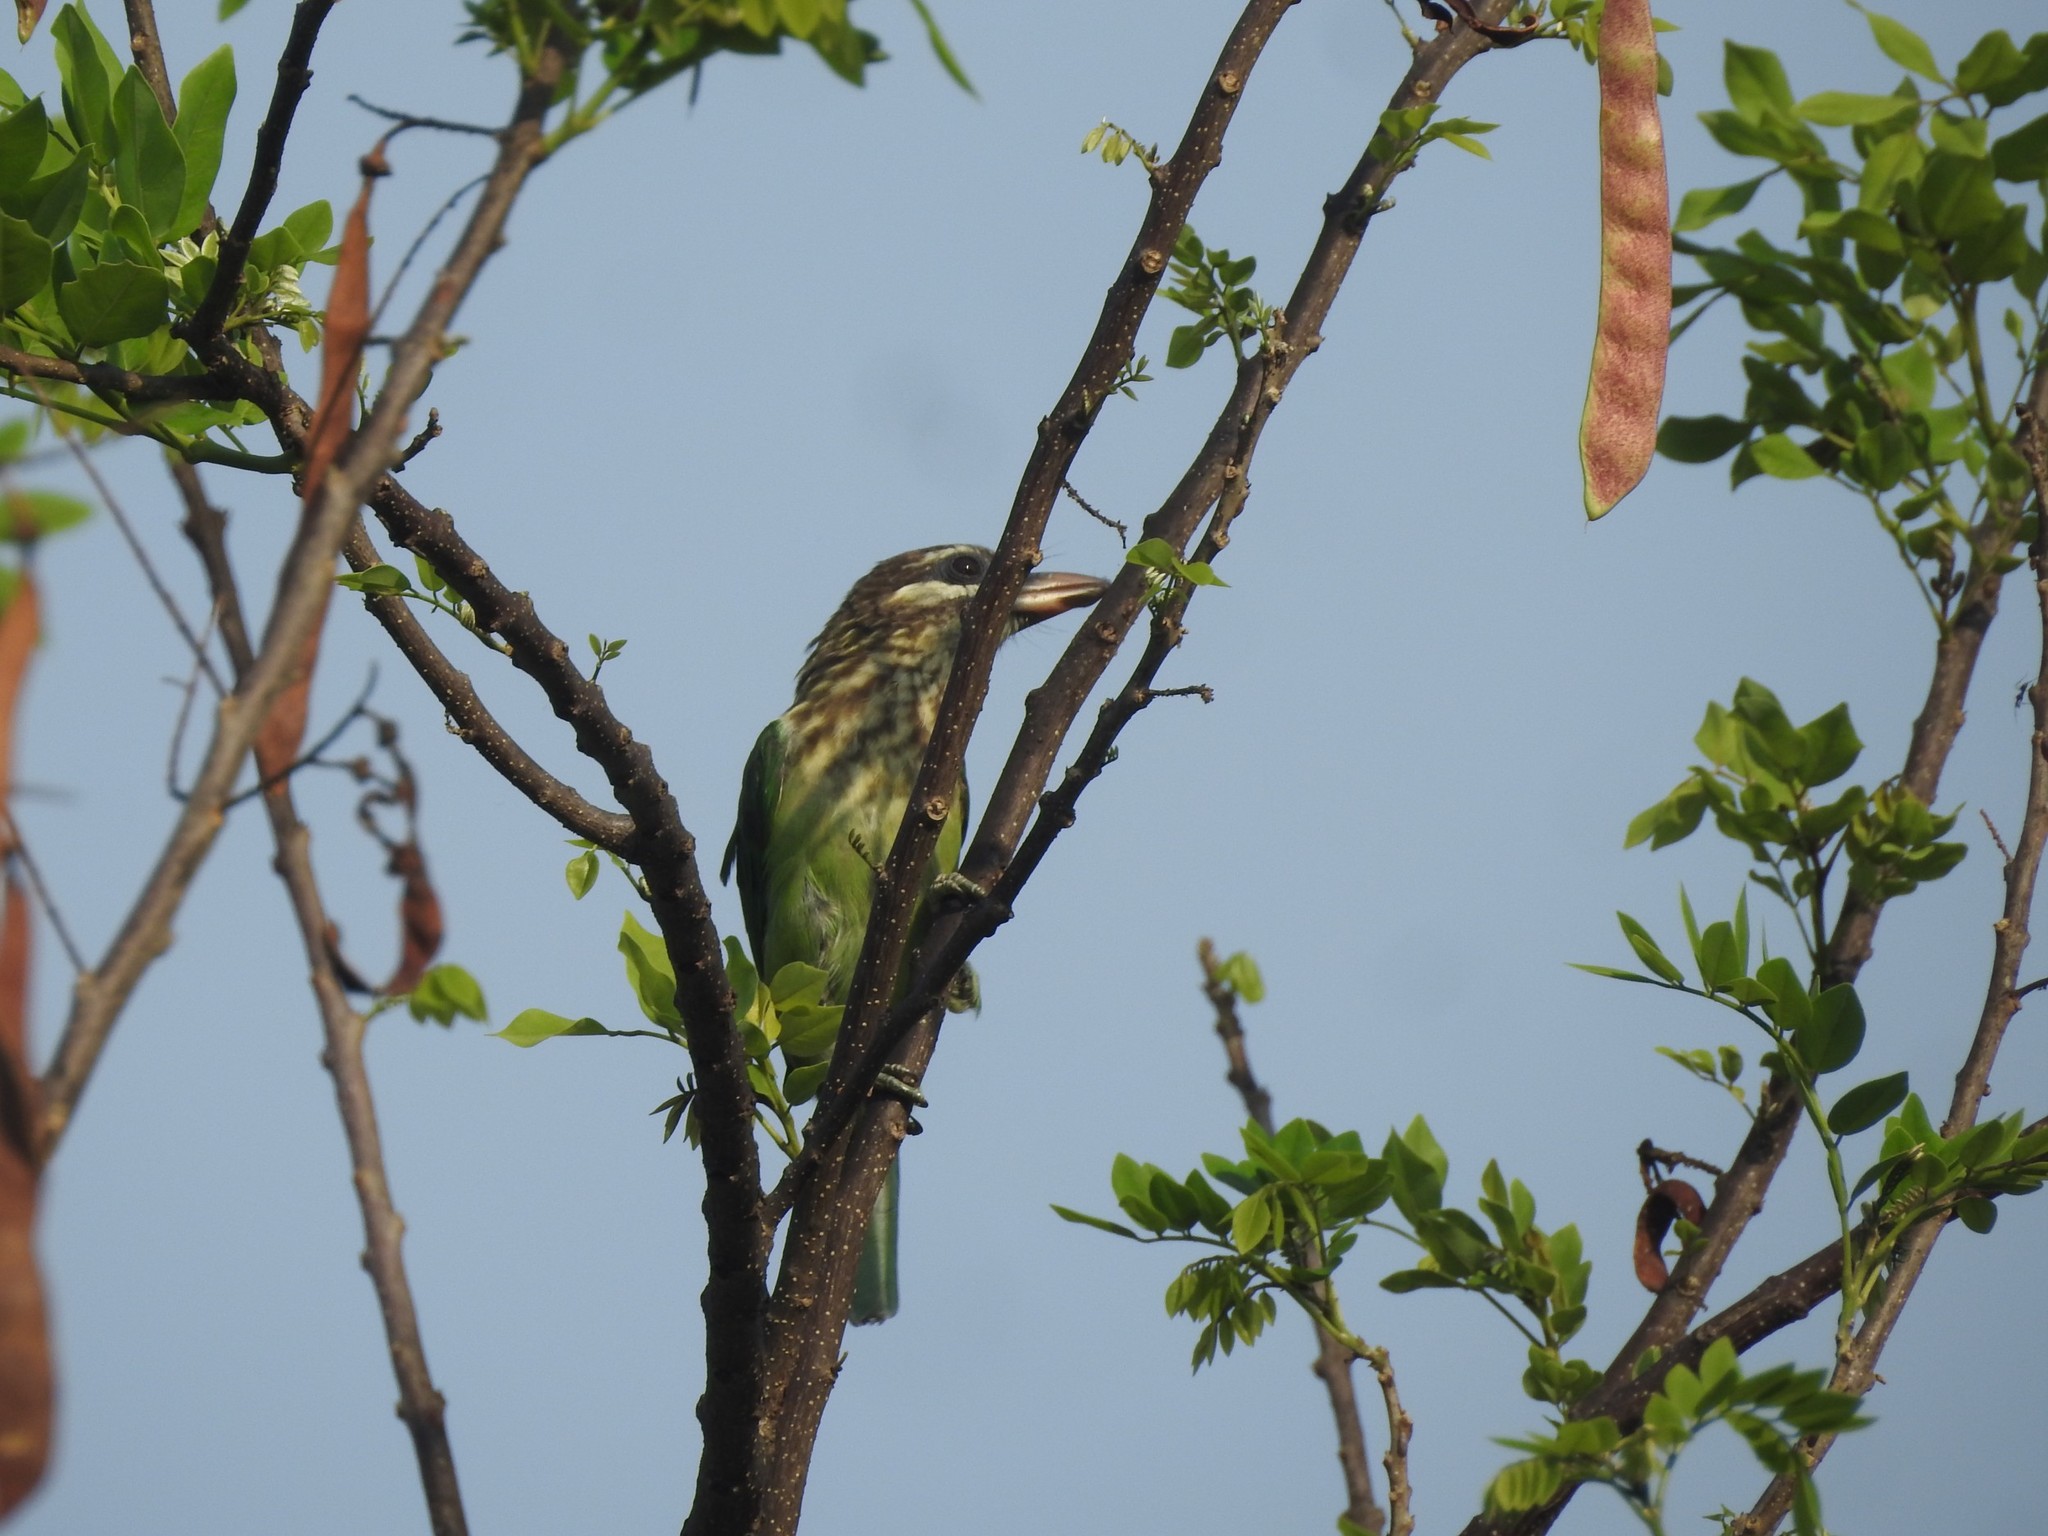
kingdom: Animalia
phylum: Chordata
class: Aves
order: Piciformes
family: Megalaimidae
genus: Psilopogon
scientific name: Psilopogon viridis
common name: White-cheeked barbet
